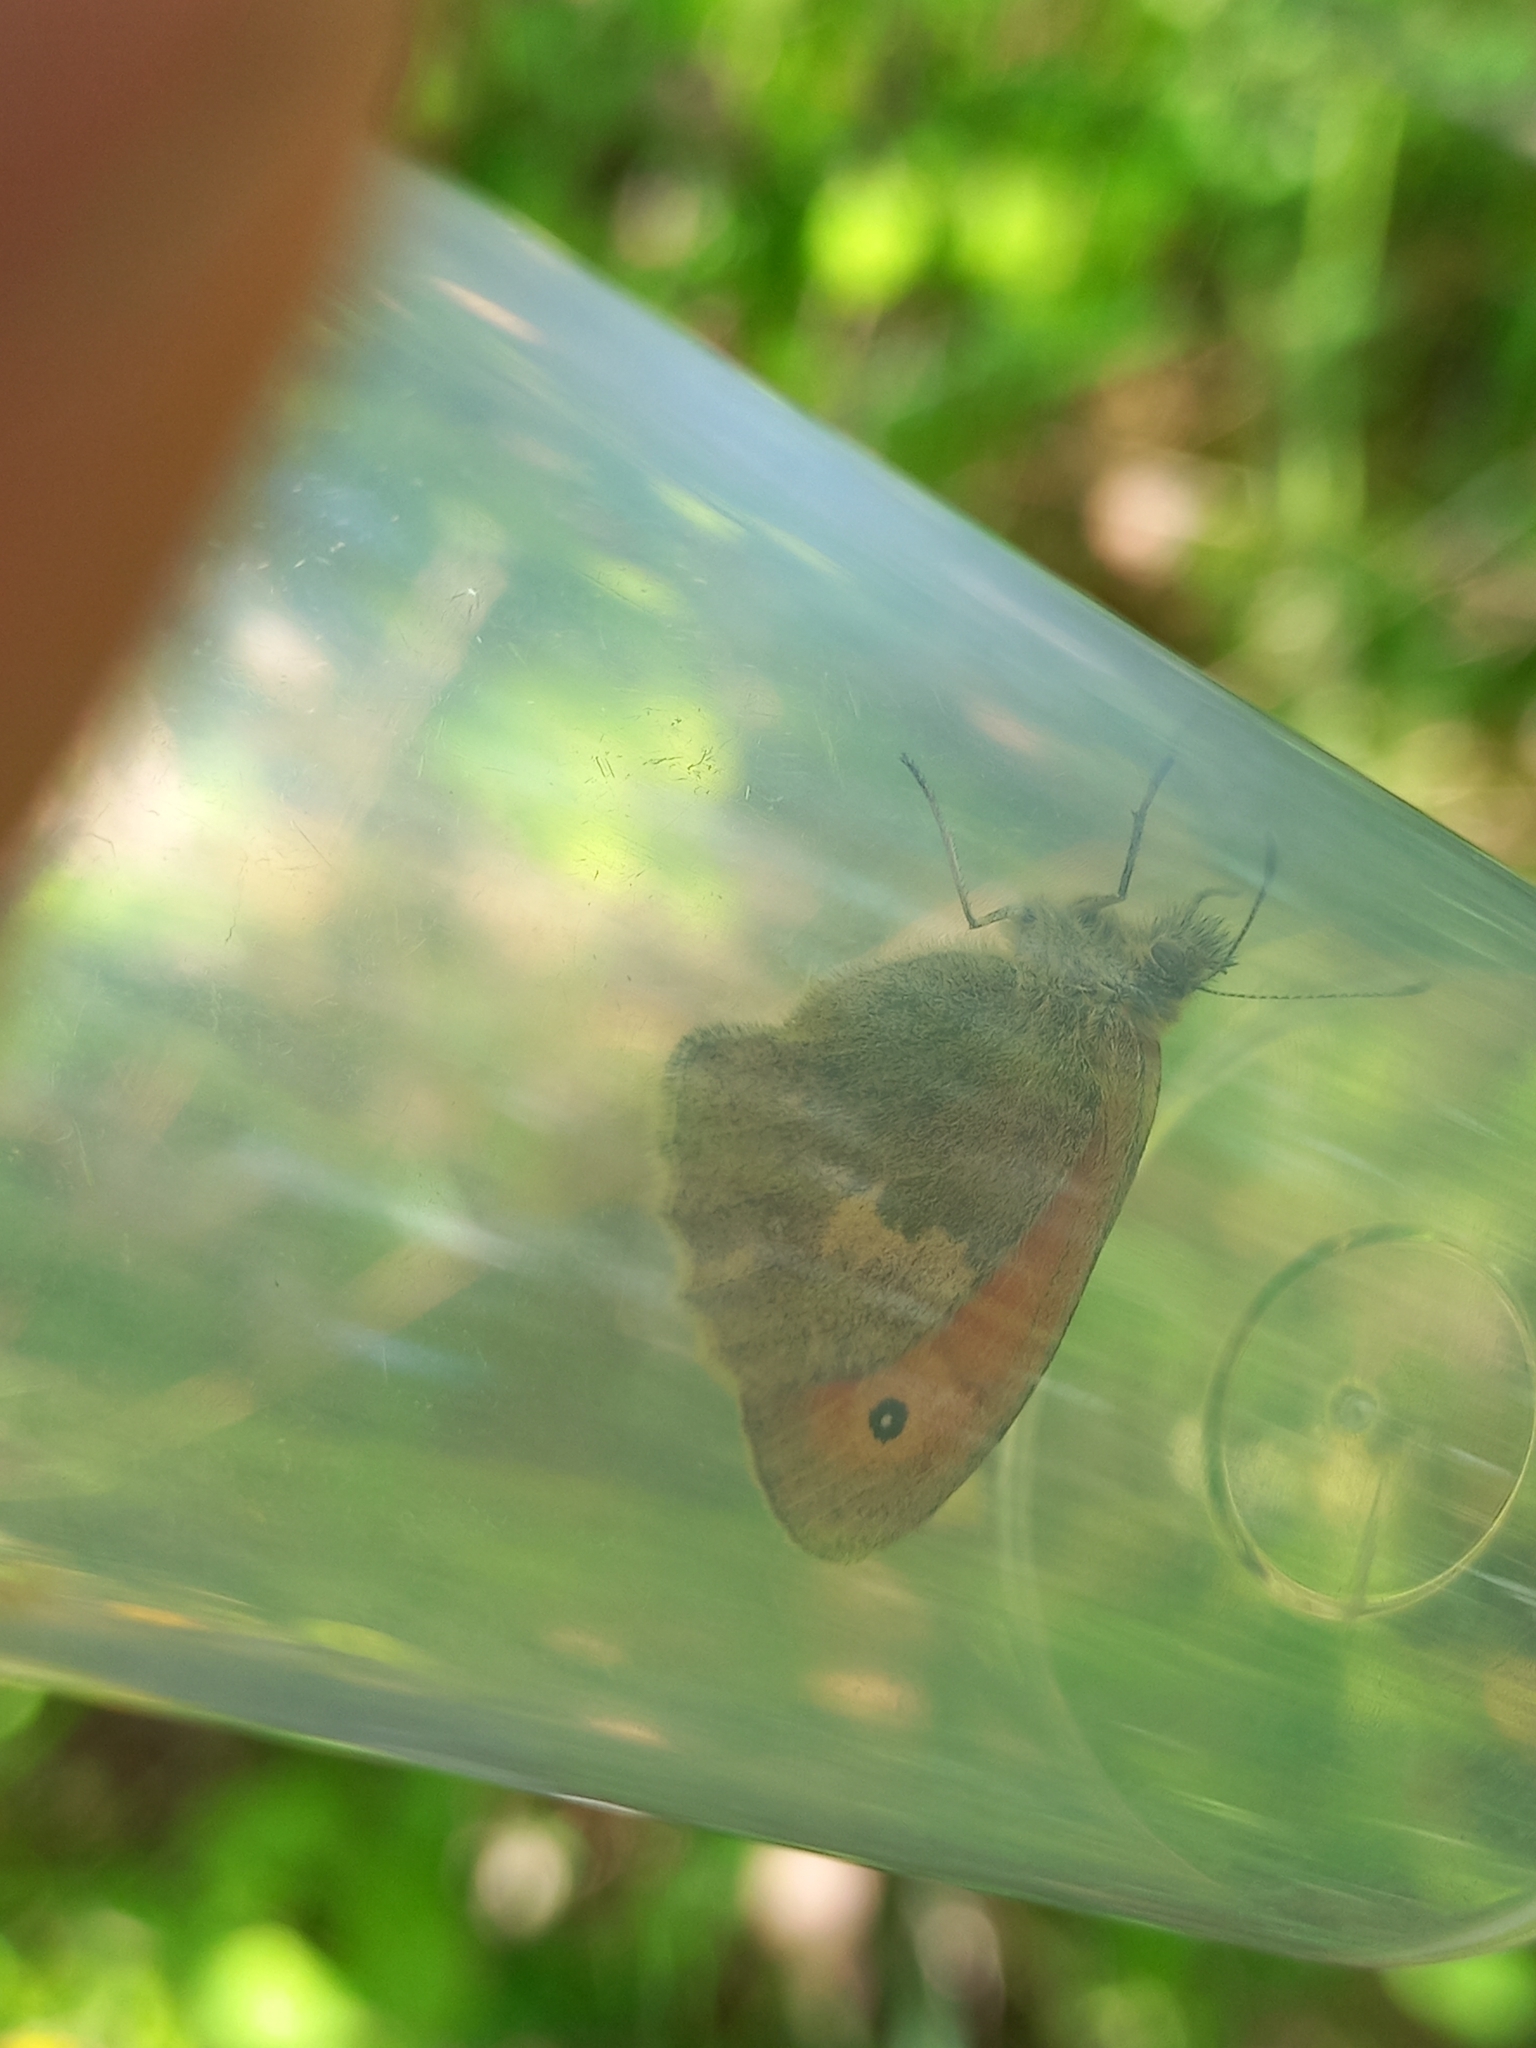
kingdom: Animalia
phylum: Arthropoda
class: Insecta
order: Lepidoptera
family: Nymphalidae
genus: Coenonympha
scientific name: Coenonympha pamphilus
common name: Small heath
